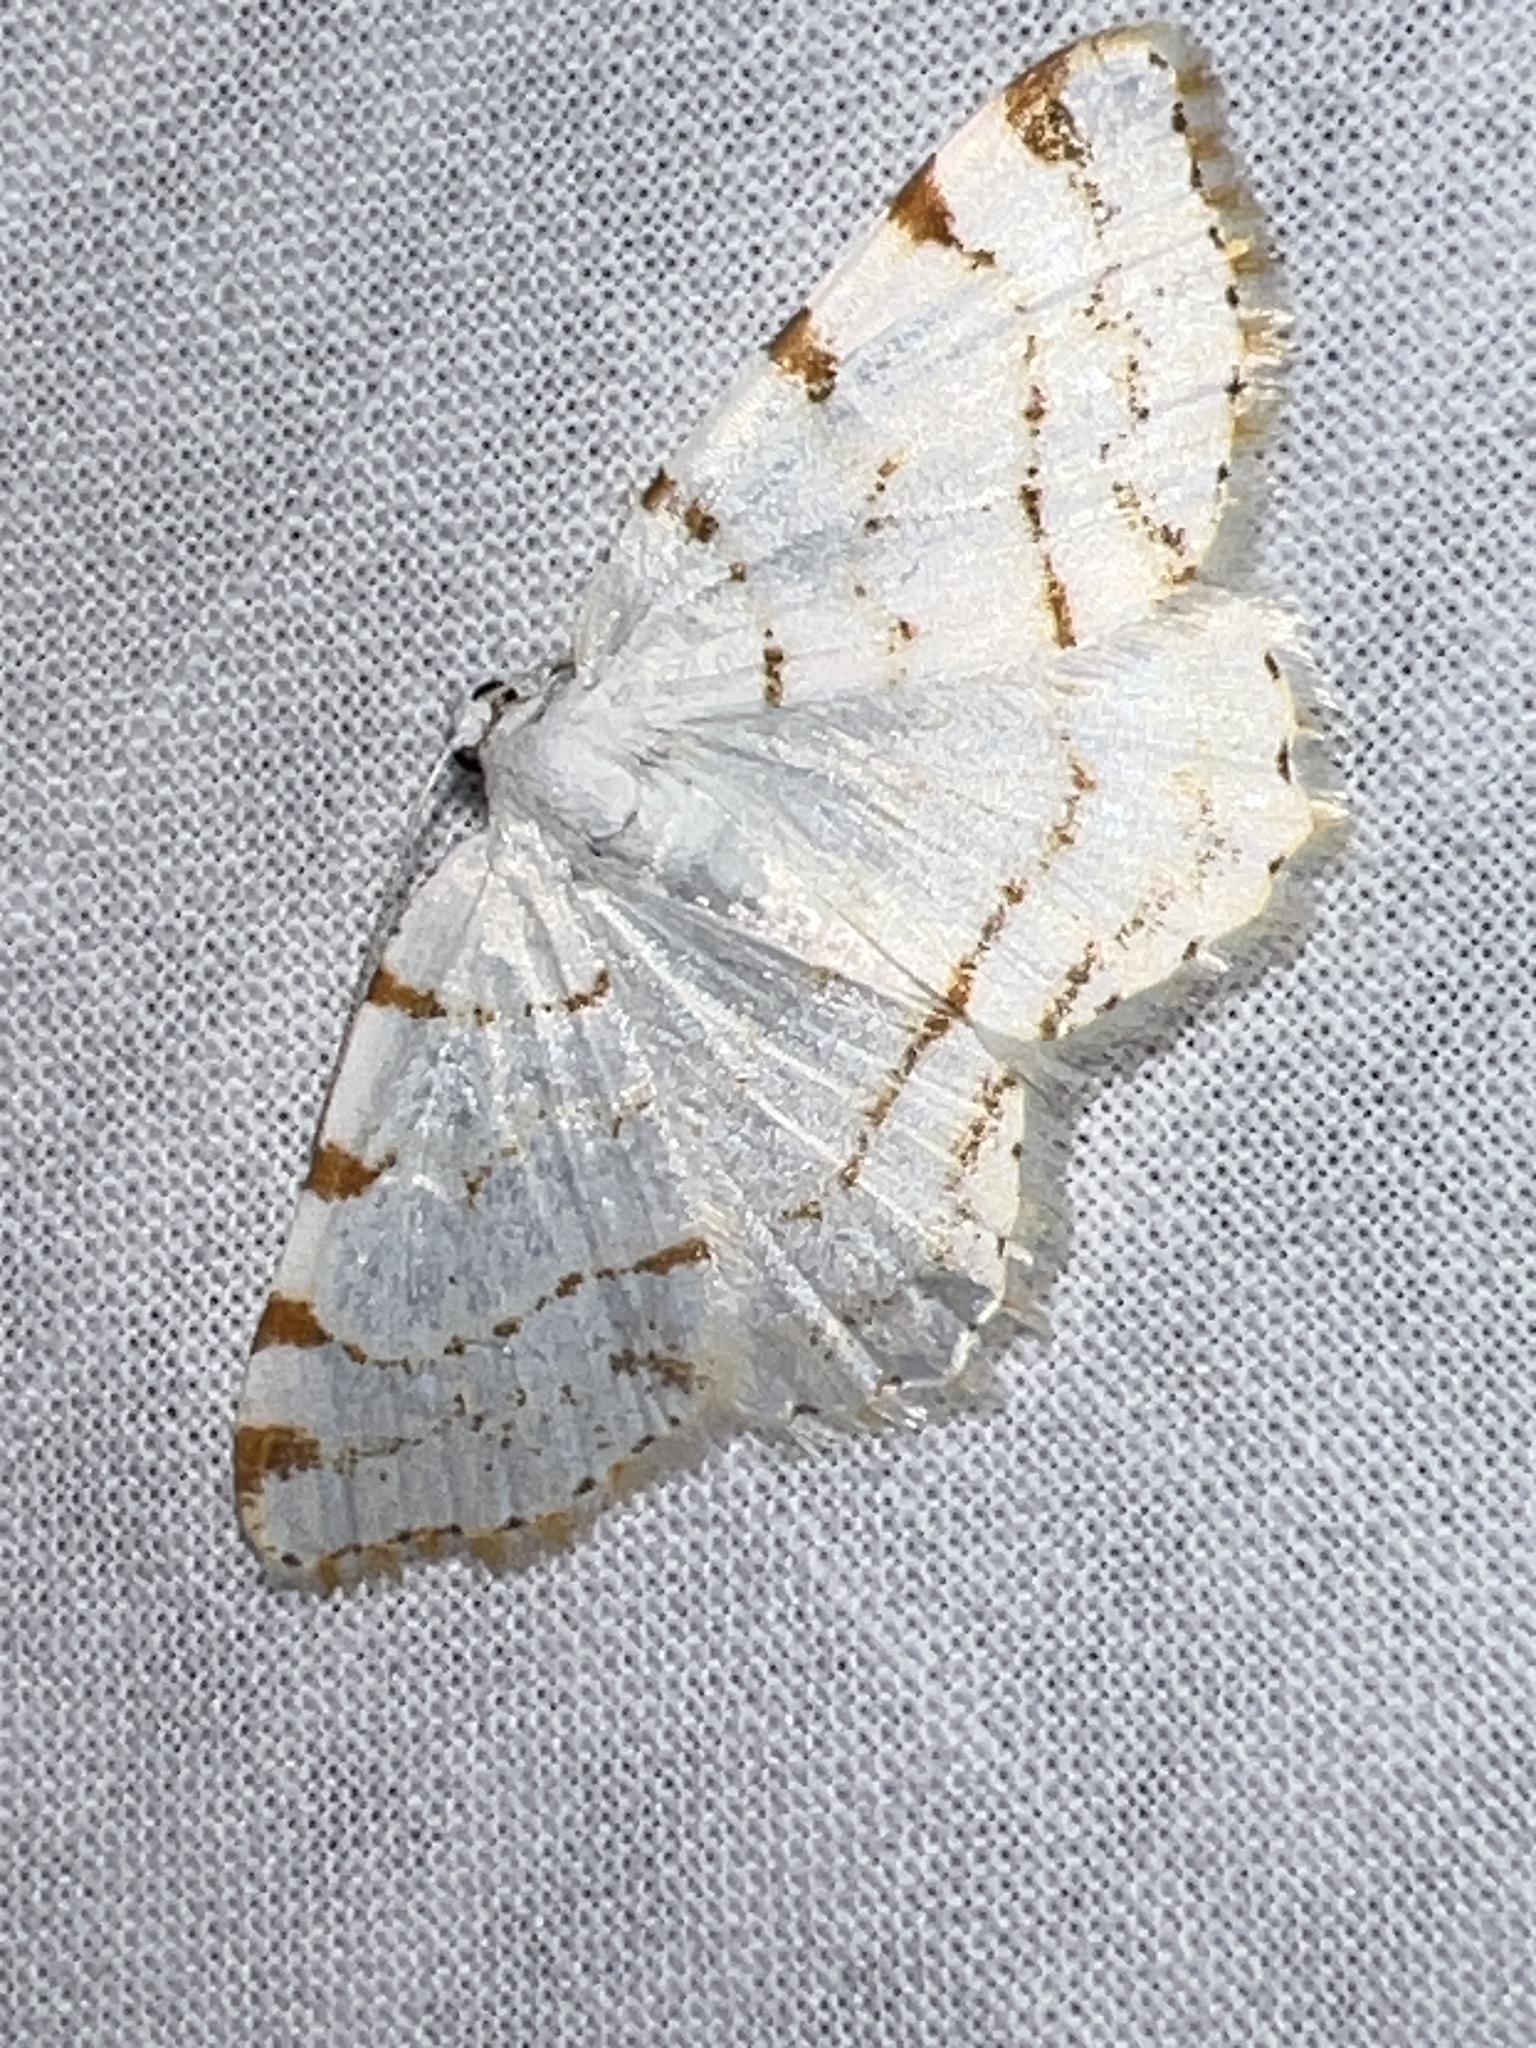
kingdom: Animalia
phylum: Arthropoda
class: Insecta
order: Lepidoptera
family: Geometridae
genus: Macaria
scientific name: Macaria pustularia
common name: Lesser maple spanworm moth
